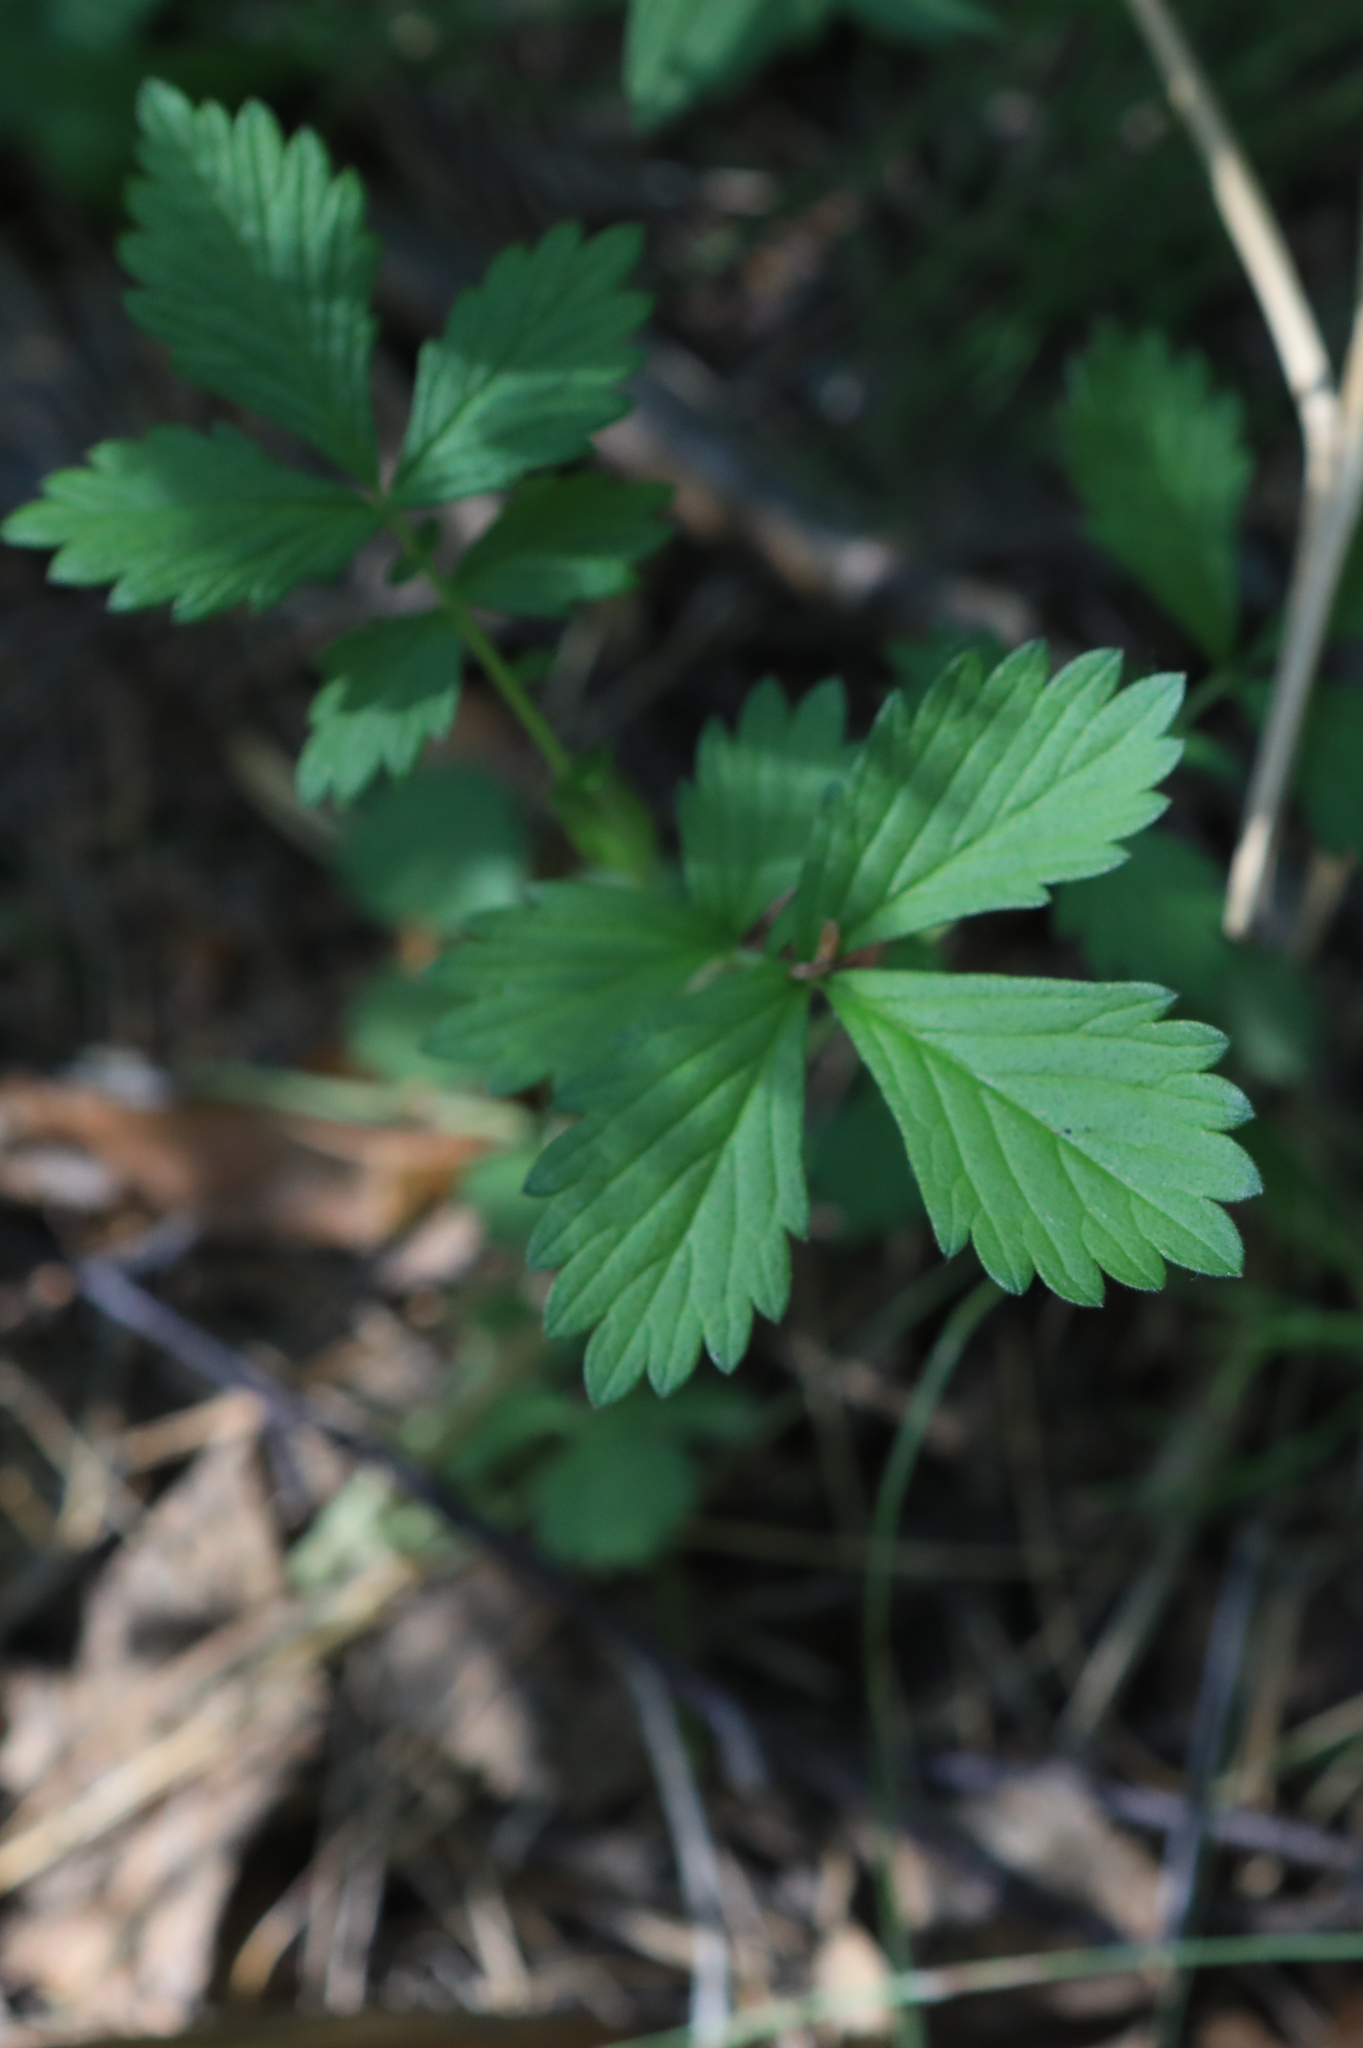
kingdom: Plantae
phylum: Tracheophyta
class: Magnoliopsida
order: Rosales
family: Rosaceae
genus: Agrimonia
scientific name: Agrimonia pilosa
